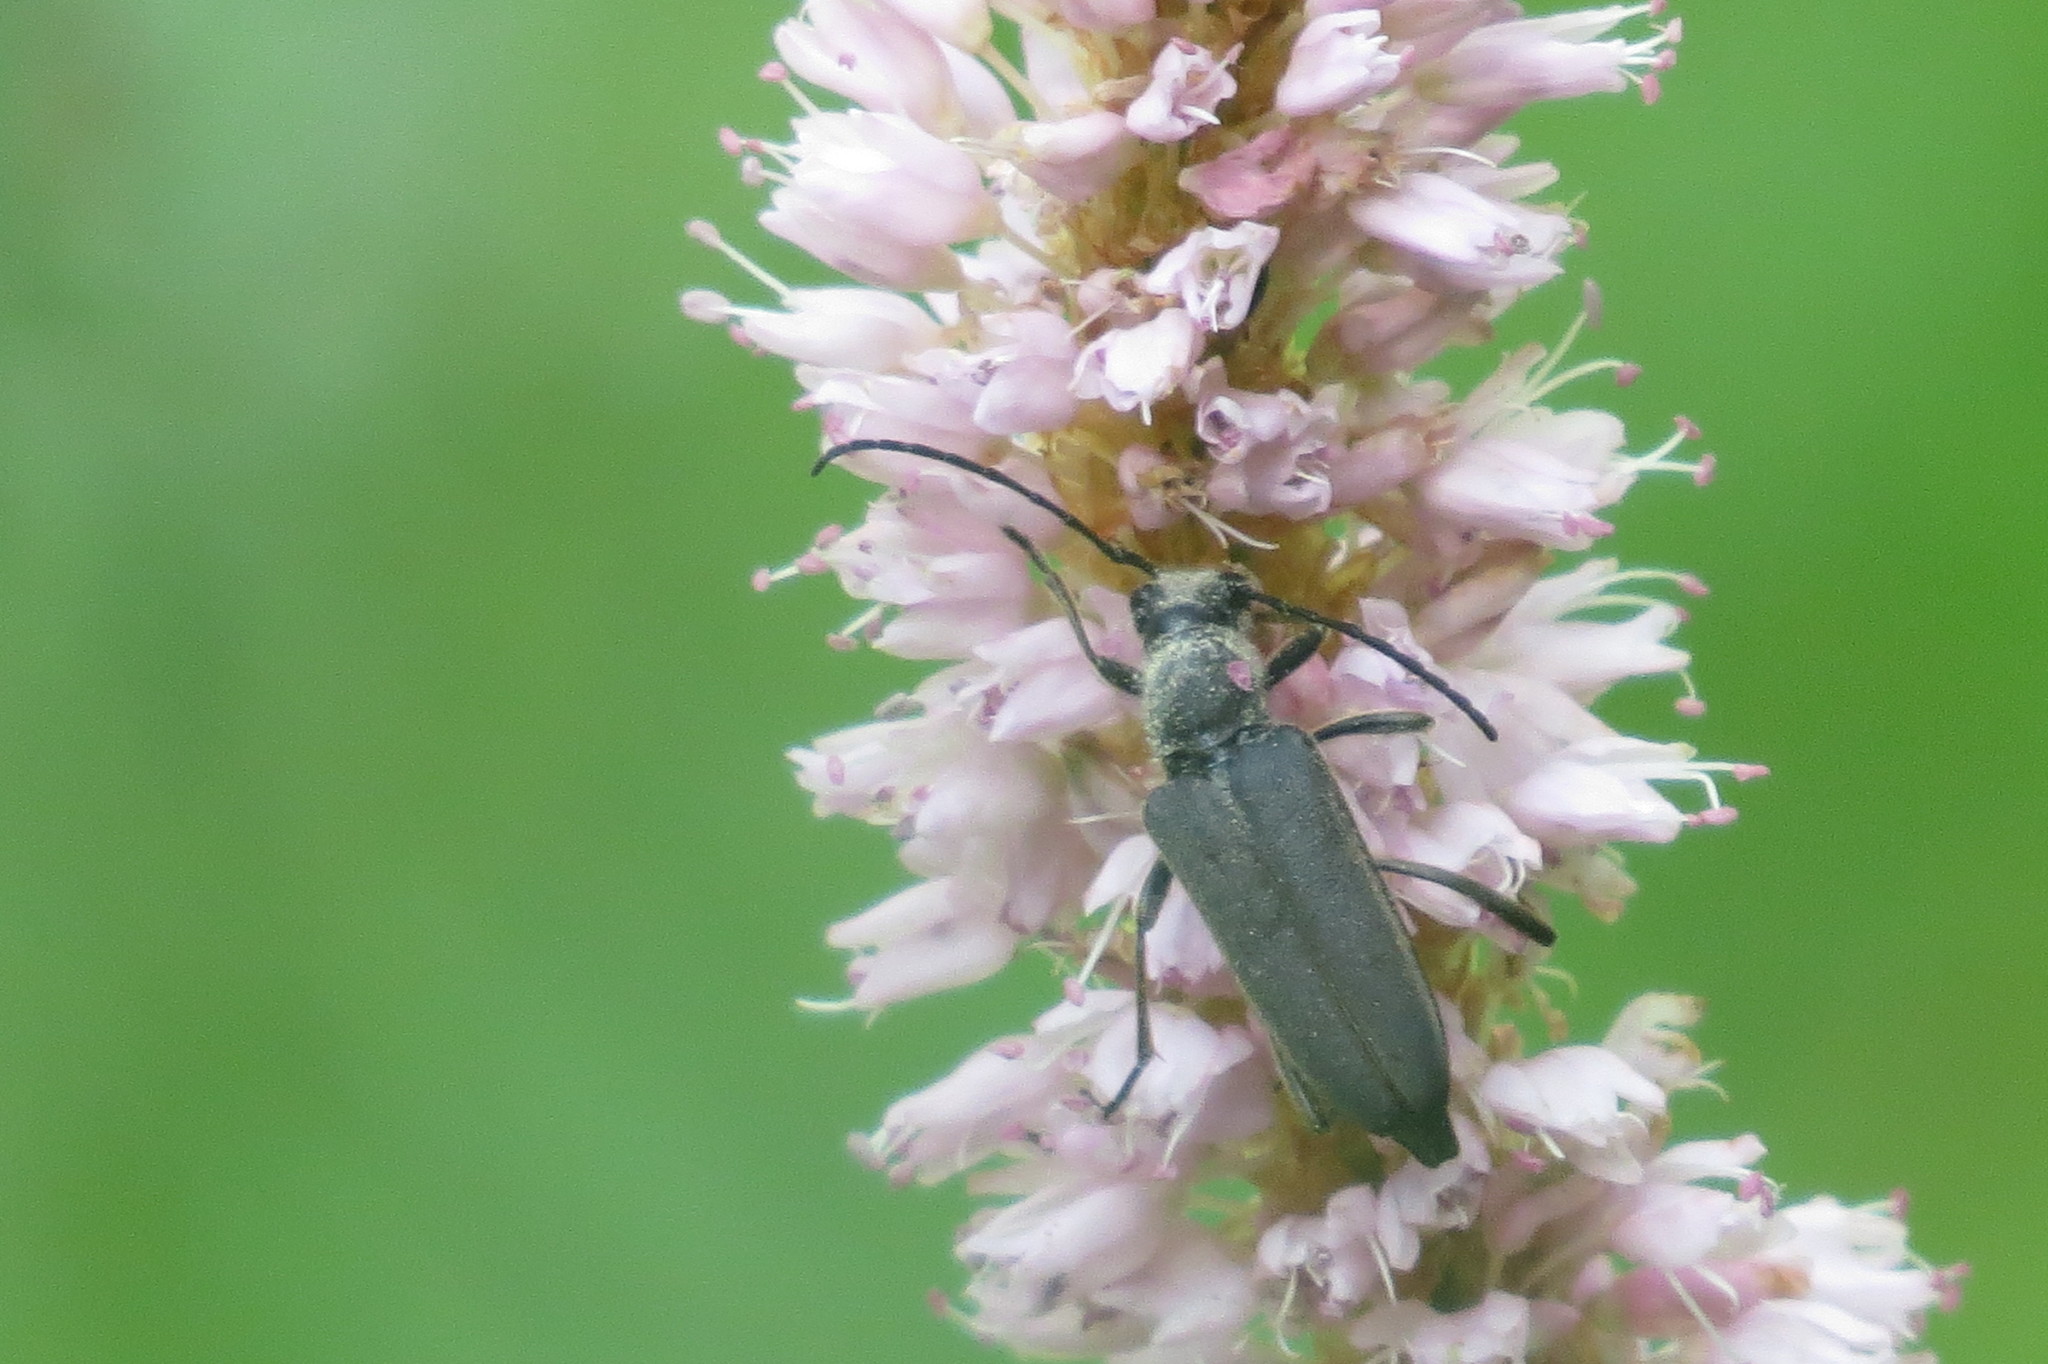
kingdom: Animalia
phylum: Arthropoda
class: Insecta
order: Coleoptera
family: Cerambycidae
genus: Anastrangalia
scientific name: Anastrangalia dubia
